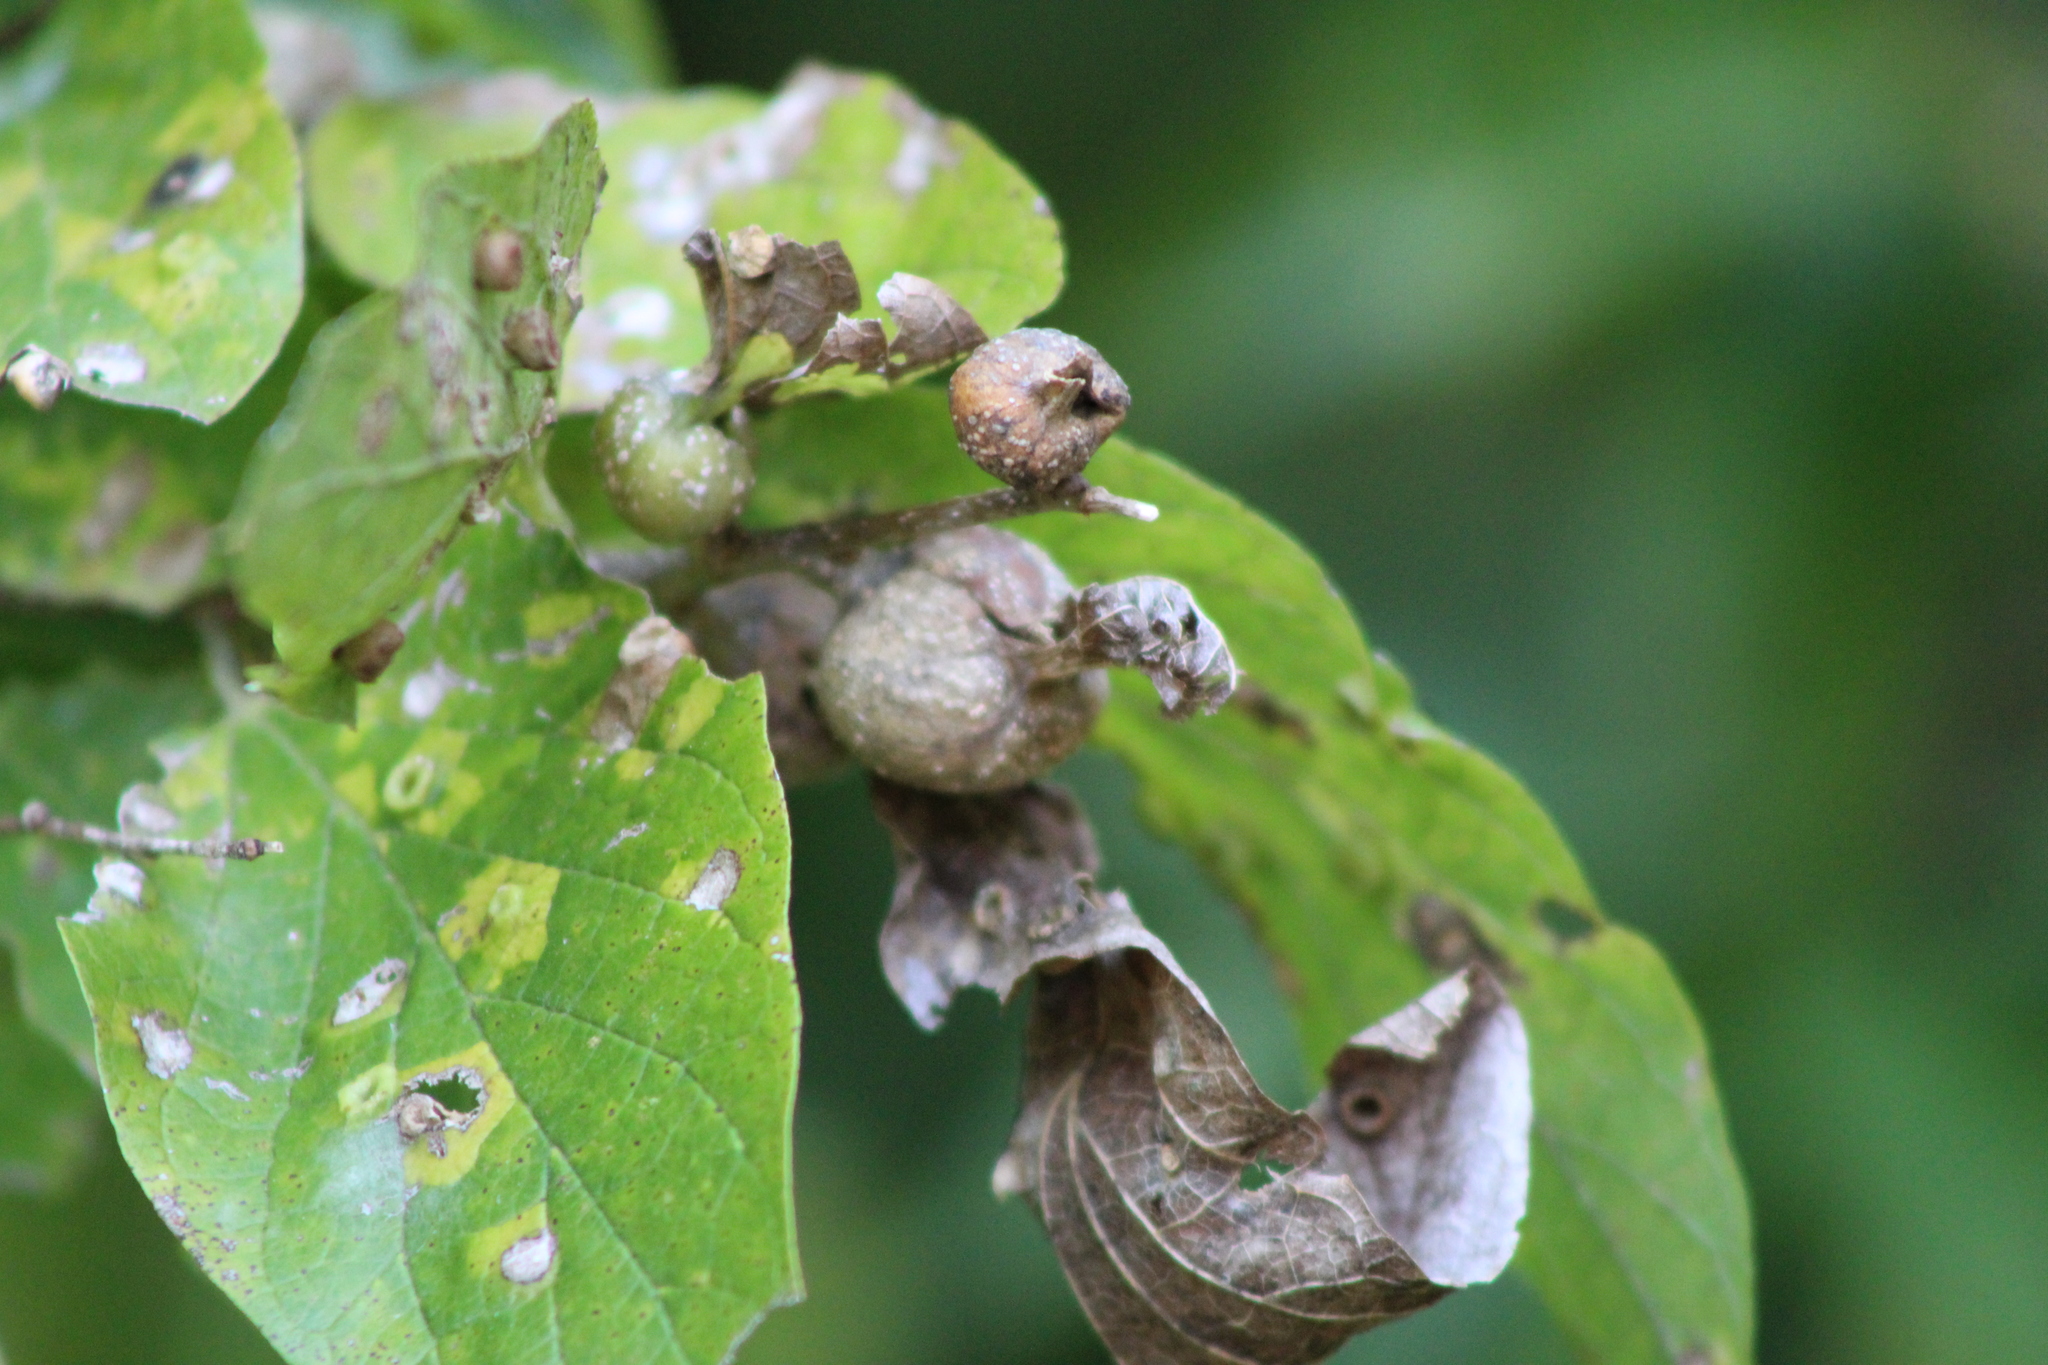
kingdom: Animalia
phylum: Arthropoda
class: Insecta
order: Hemiptera
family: Aphalaridae
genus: Pachypsylla
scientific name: Pachypsylla venusta
